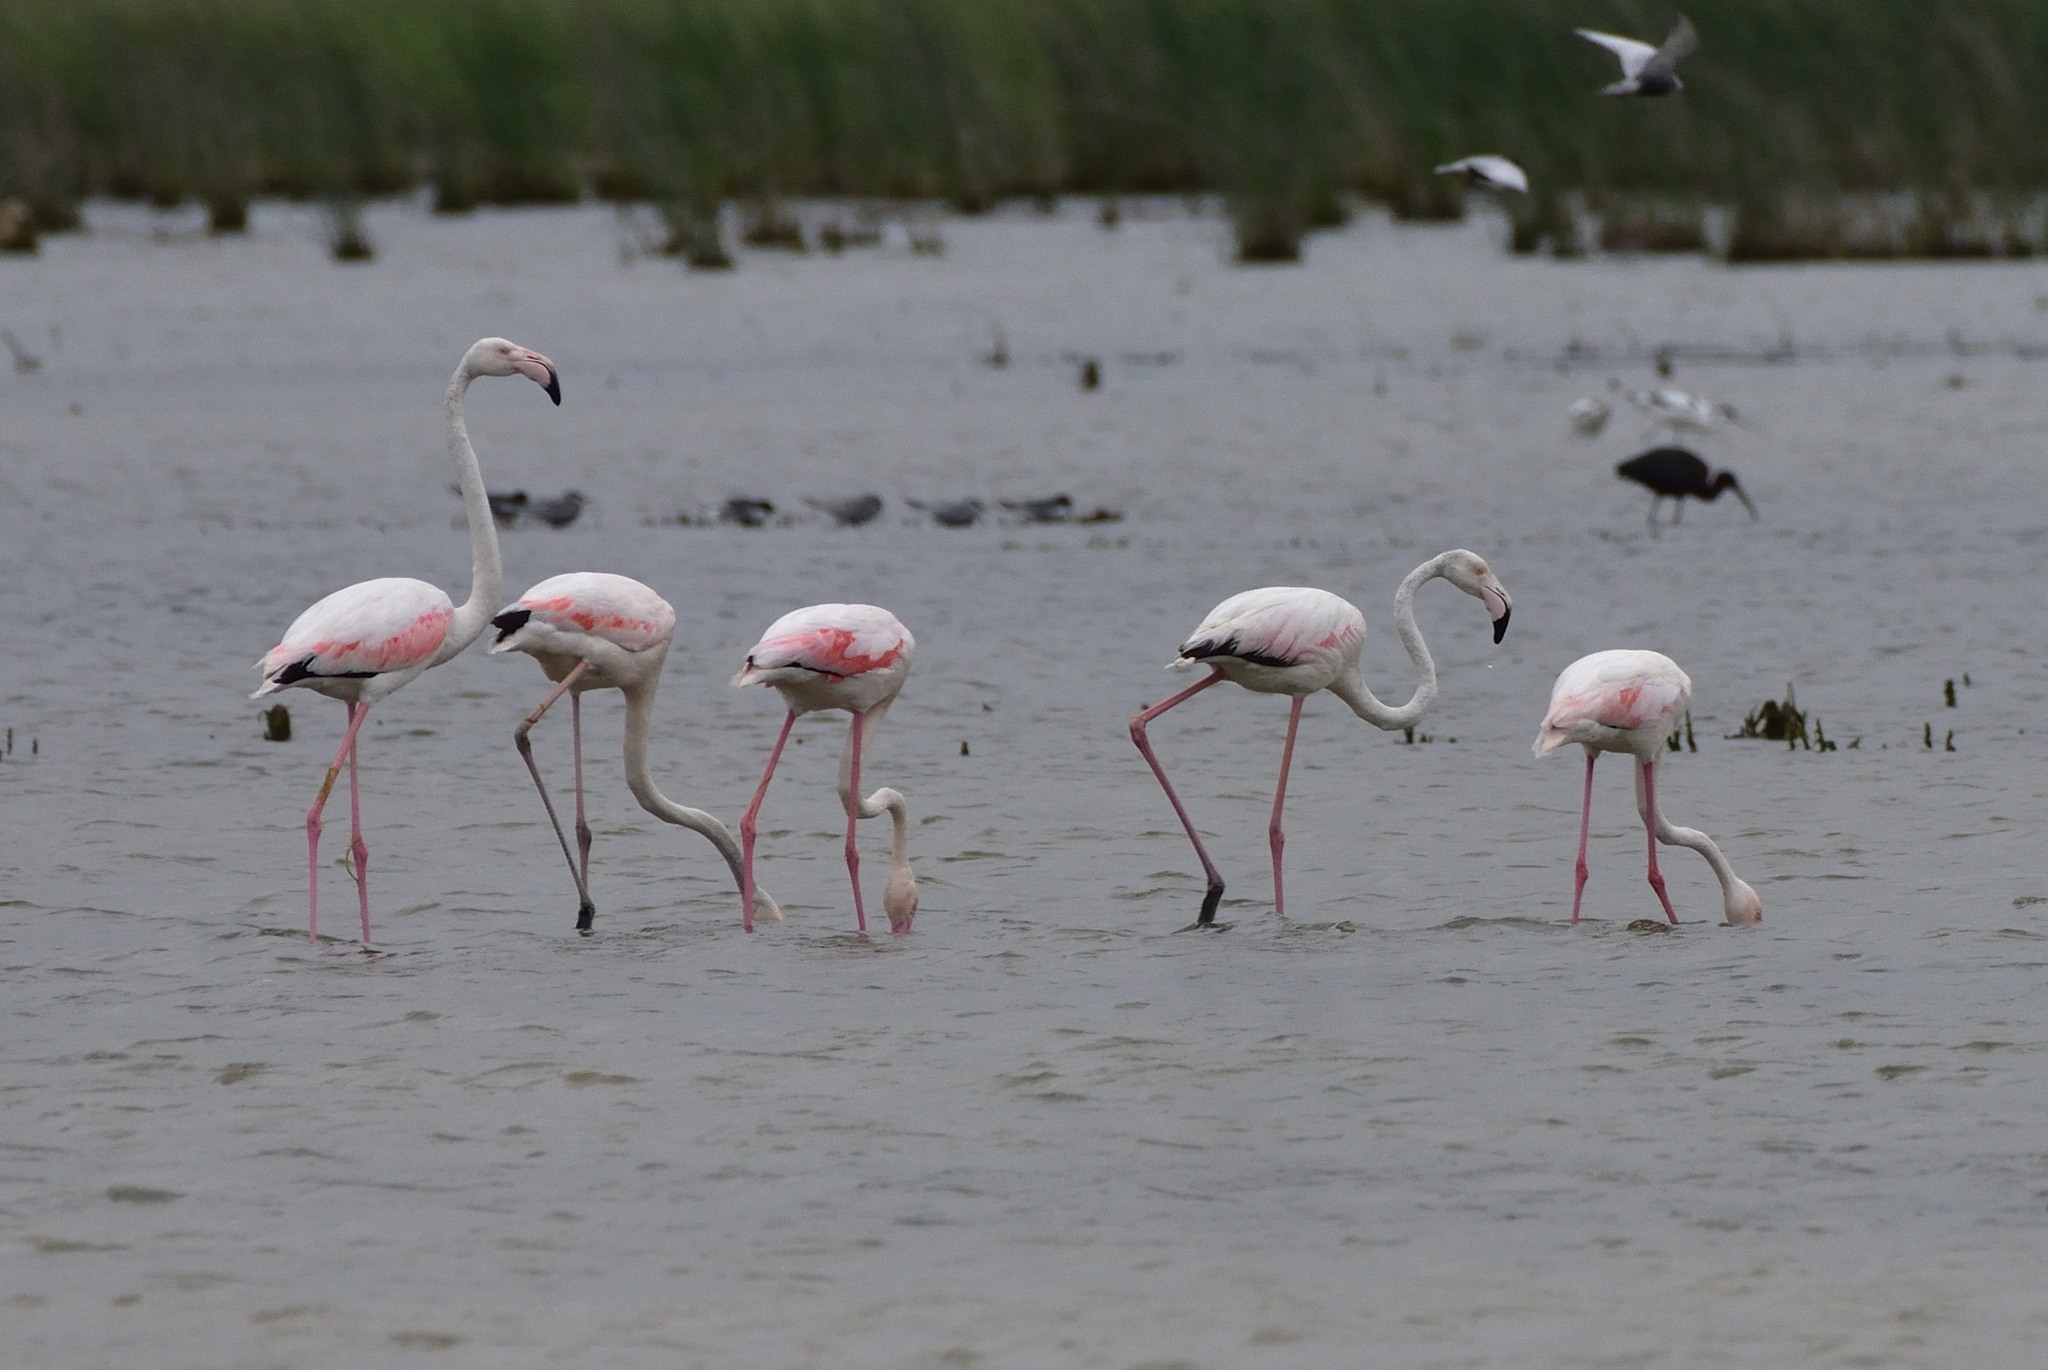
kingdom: Animalia
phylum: Chordata
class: Aves
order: Phoenicopteriformes
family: Phoenicopteridae
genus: Phoenicopterus
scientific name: Phoenicopterus roseus
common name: Greater flamingo
